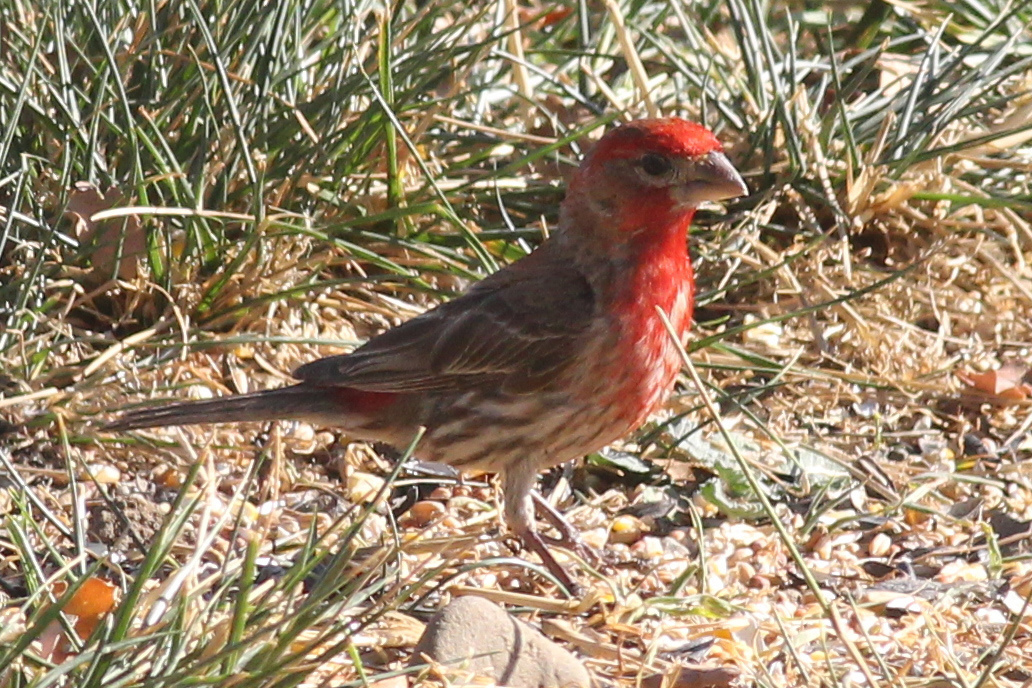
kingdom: Animalia
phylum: Chordata
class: Aves
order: Passeriformes
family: Fringillidae
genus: Haemorhous
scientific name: Haemorhous mexicanus
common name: House finch
